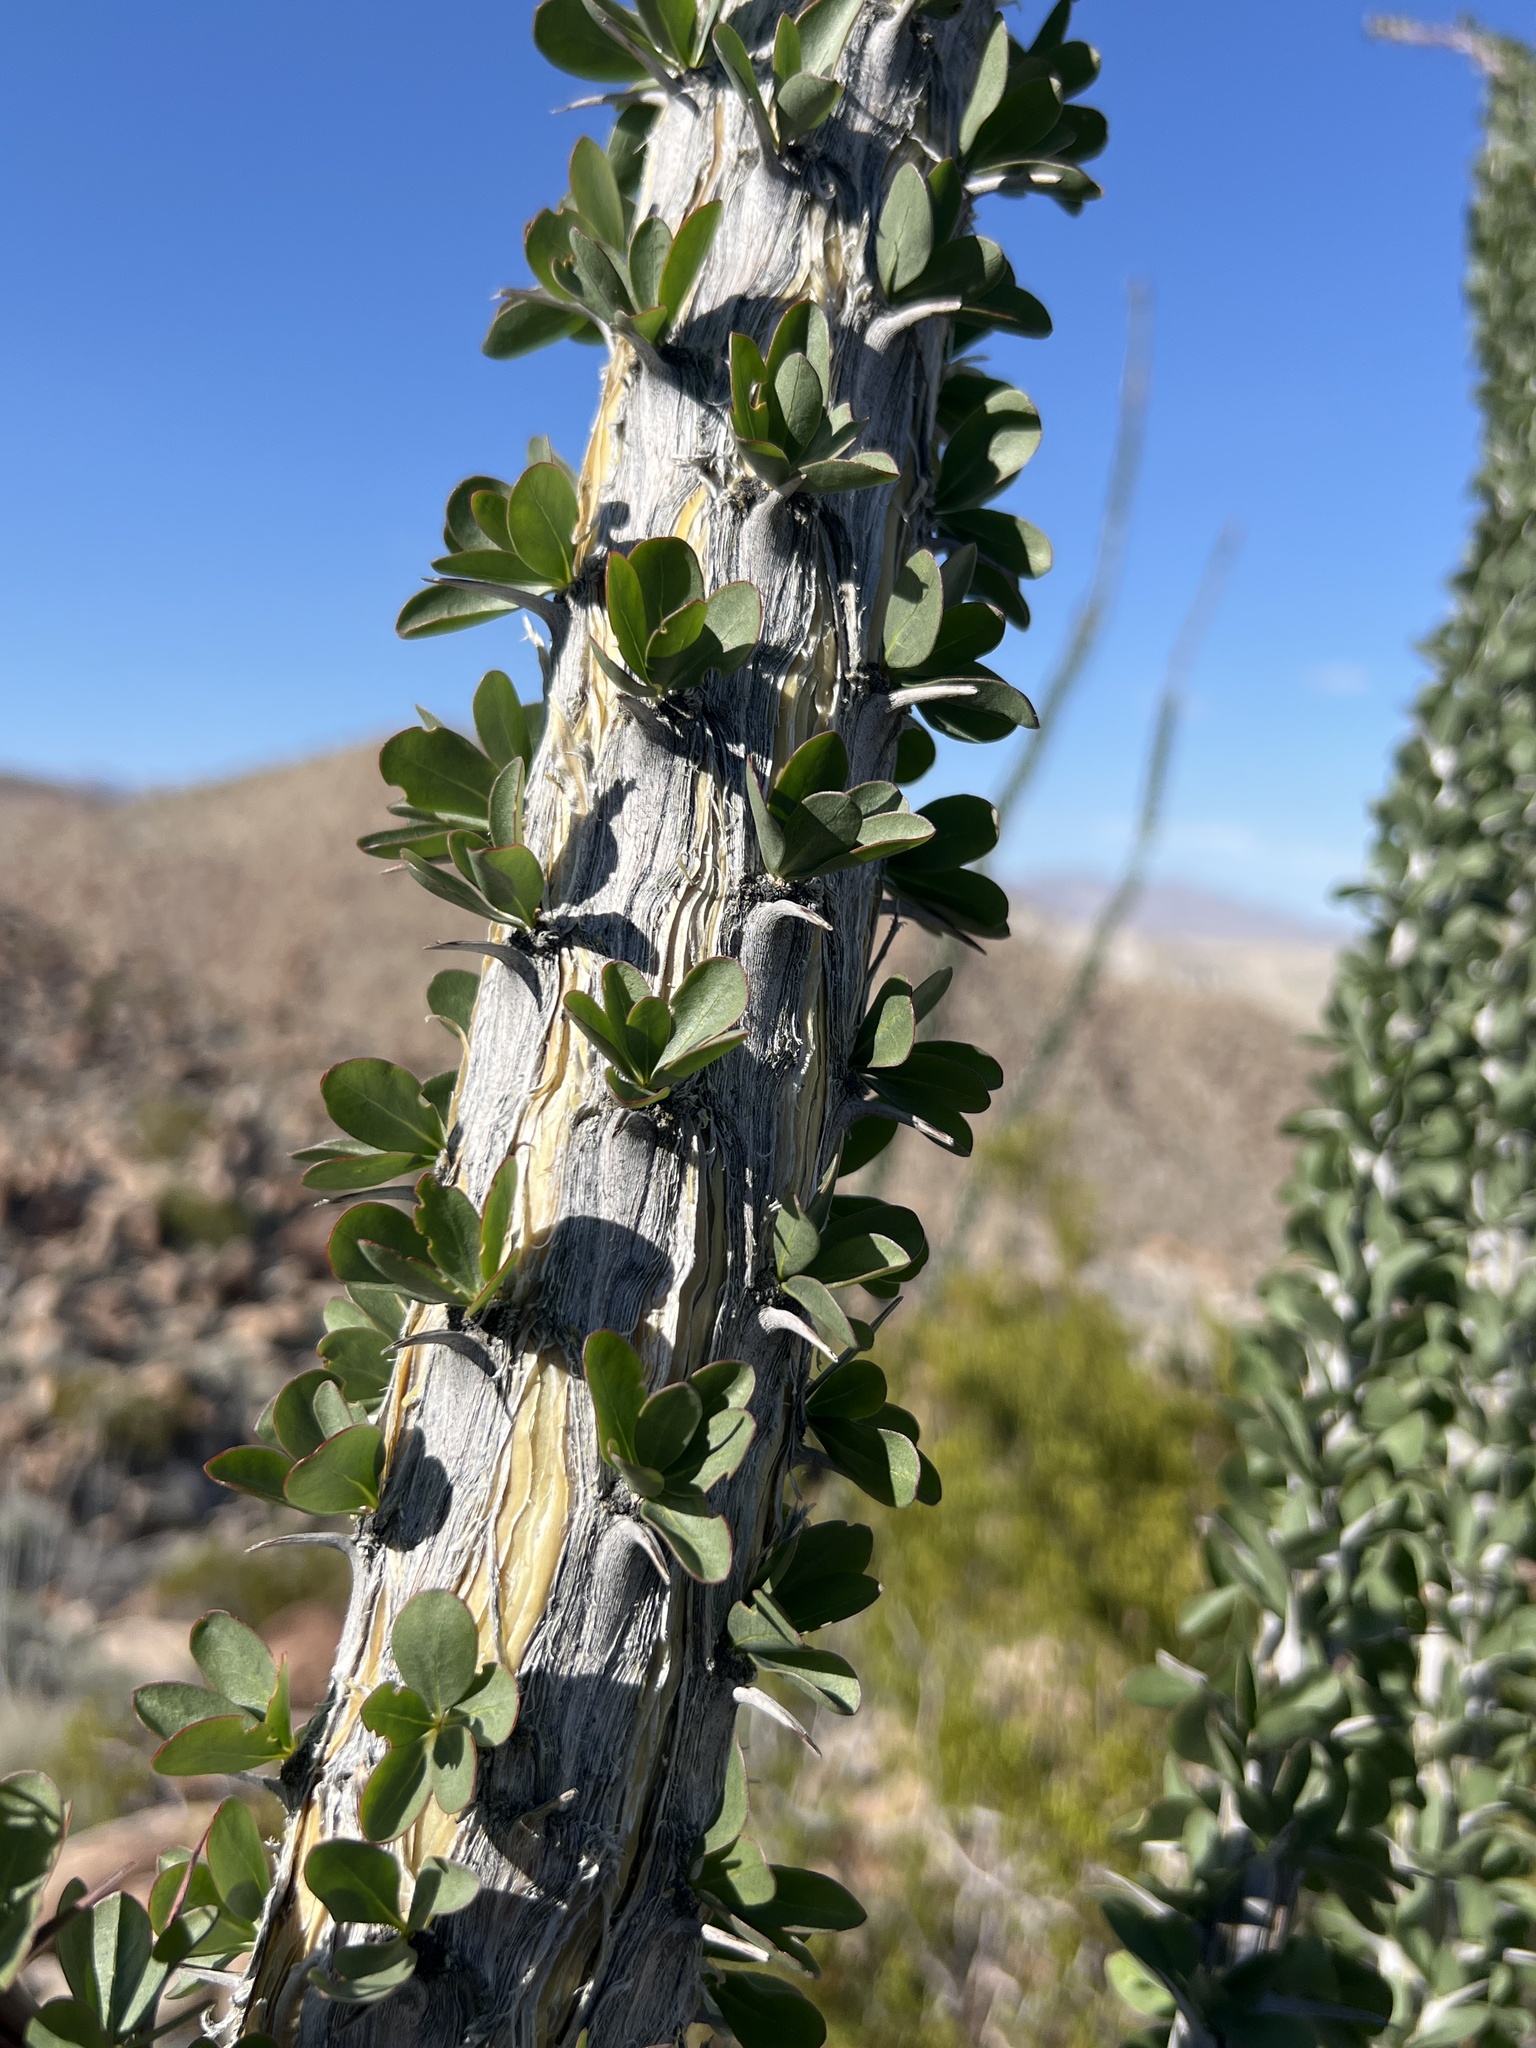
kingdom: Plantae
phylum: Tracheophyta
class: Magnoliopsida
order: Ericales
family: Fouquieriaceae
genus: Fouquieria
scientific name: Fouquieria splendens
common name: Vine-cactus
